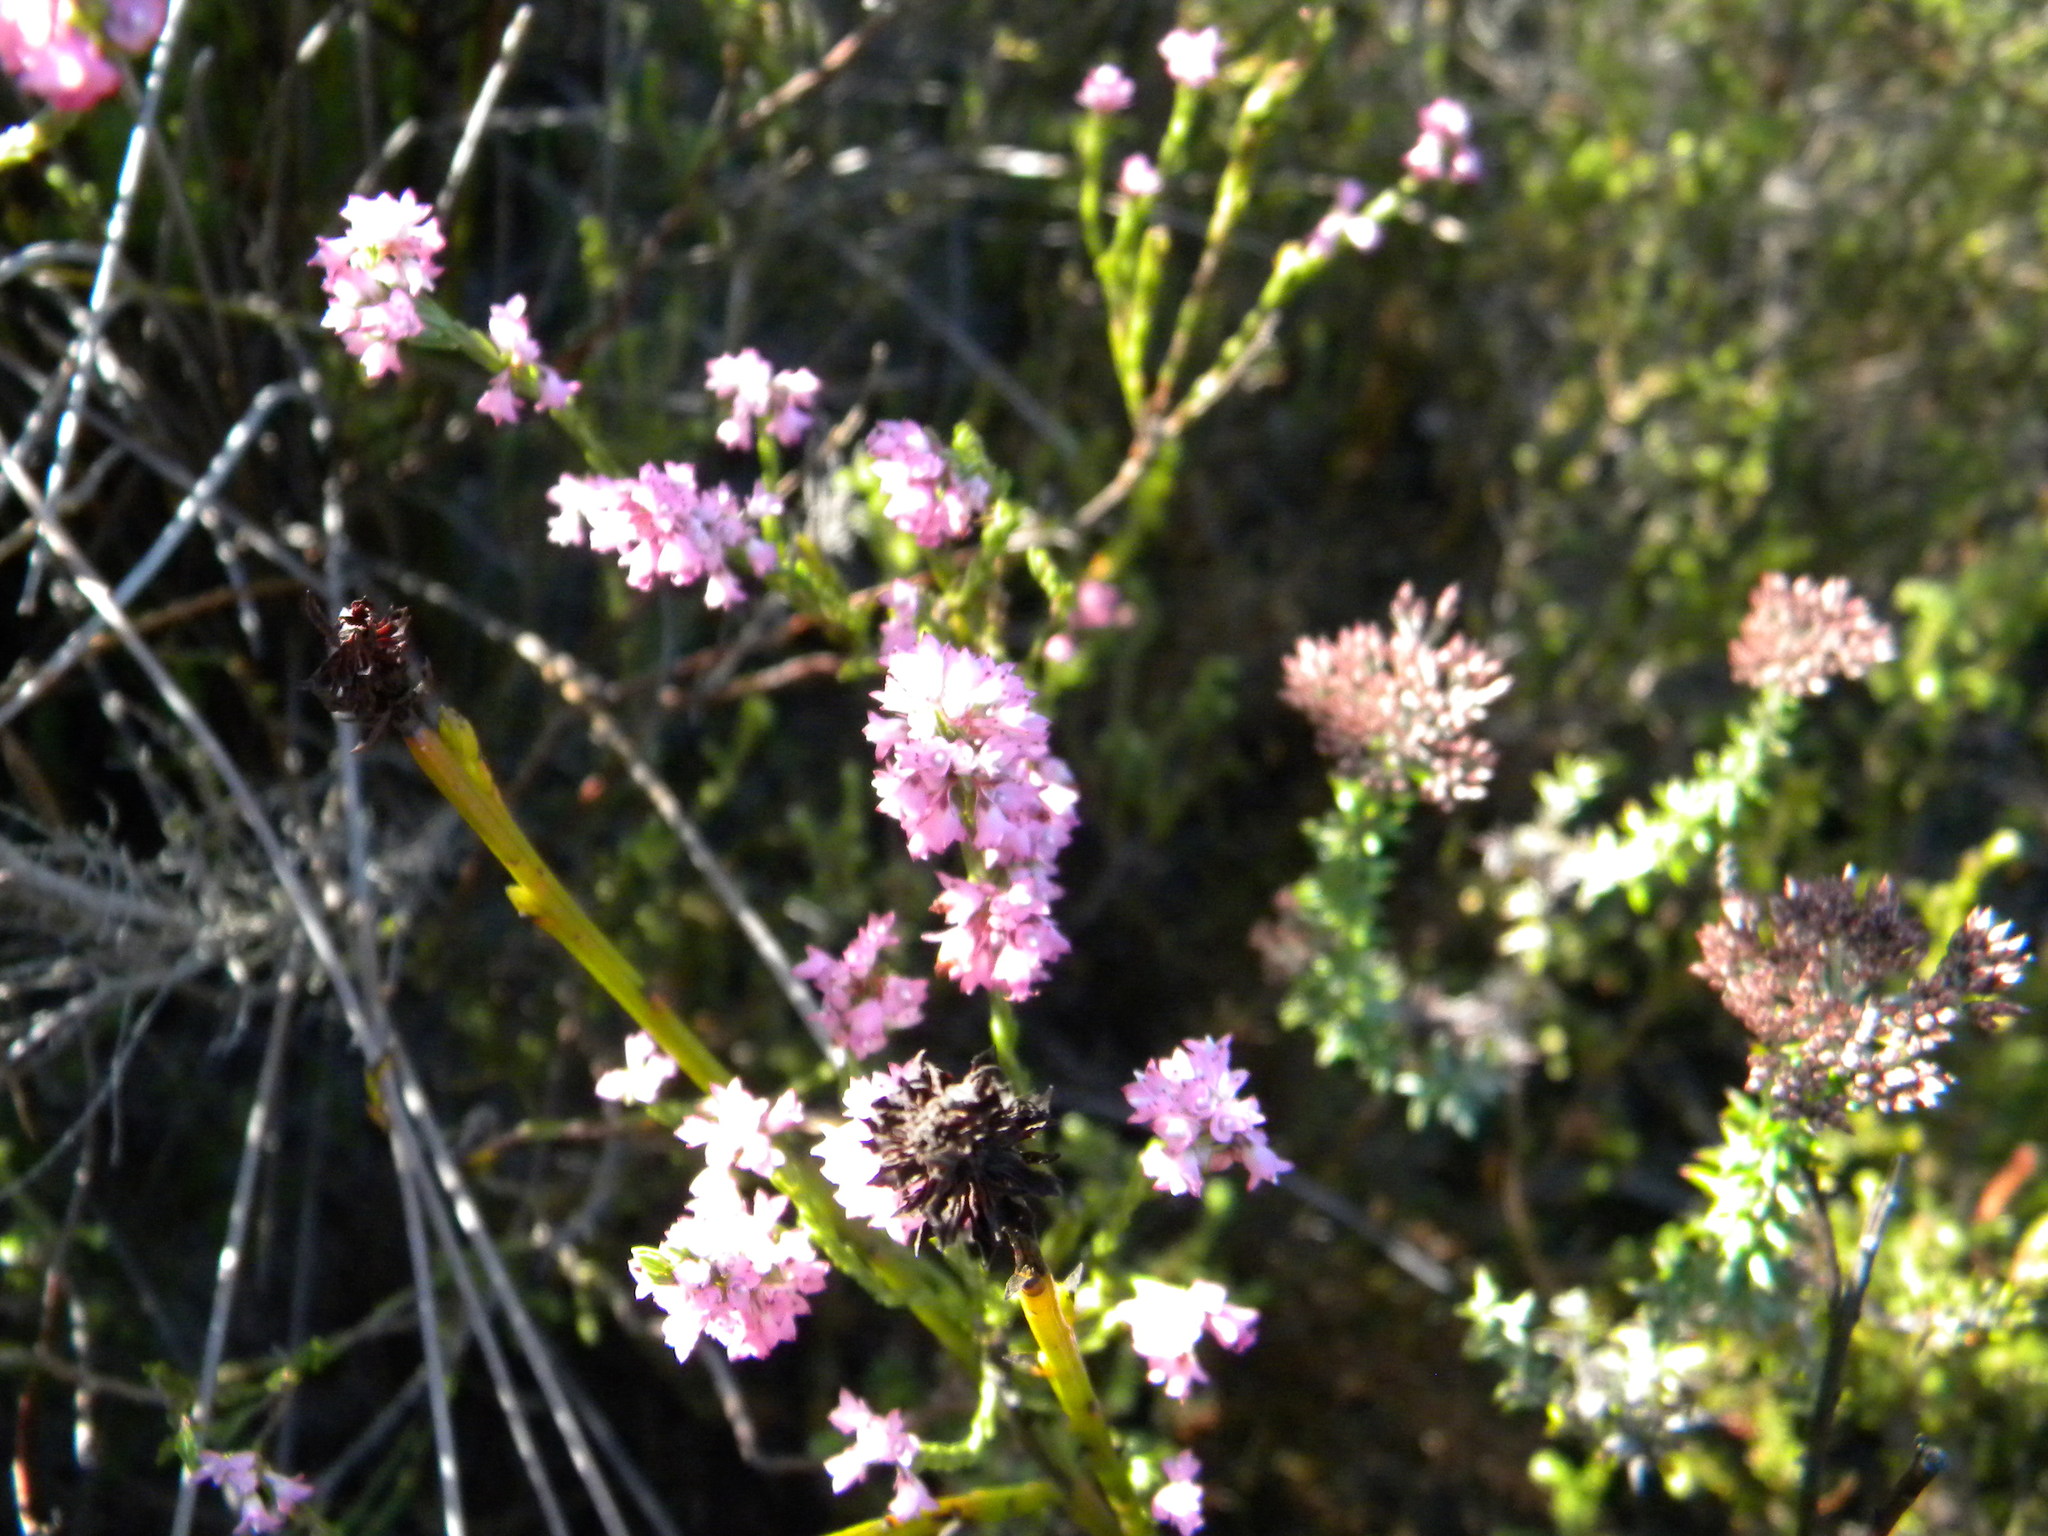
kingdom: Plantae
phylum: Tracheophyta
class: Magnoliopsida
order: Ericales
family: Ericaceae
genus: Erica
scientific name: Erica corifolia
